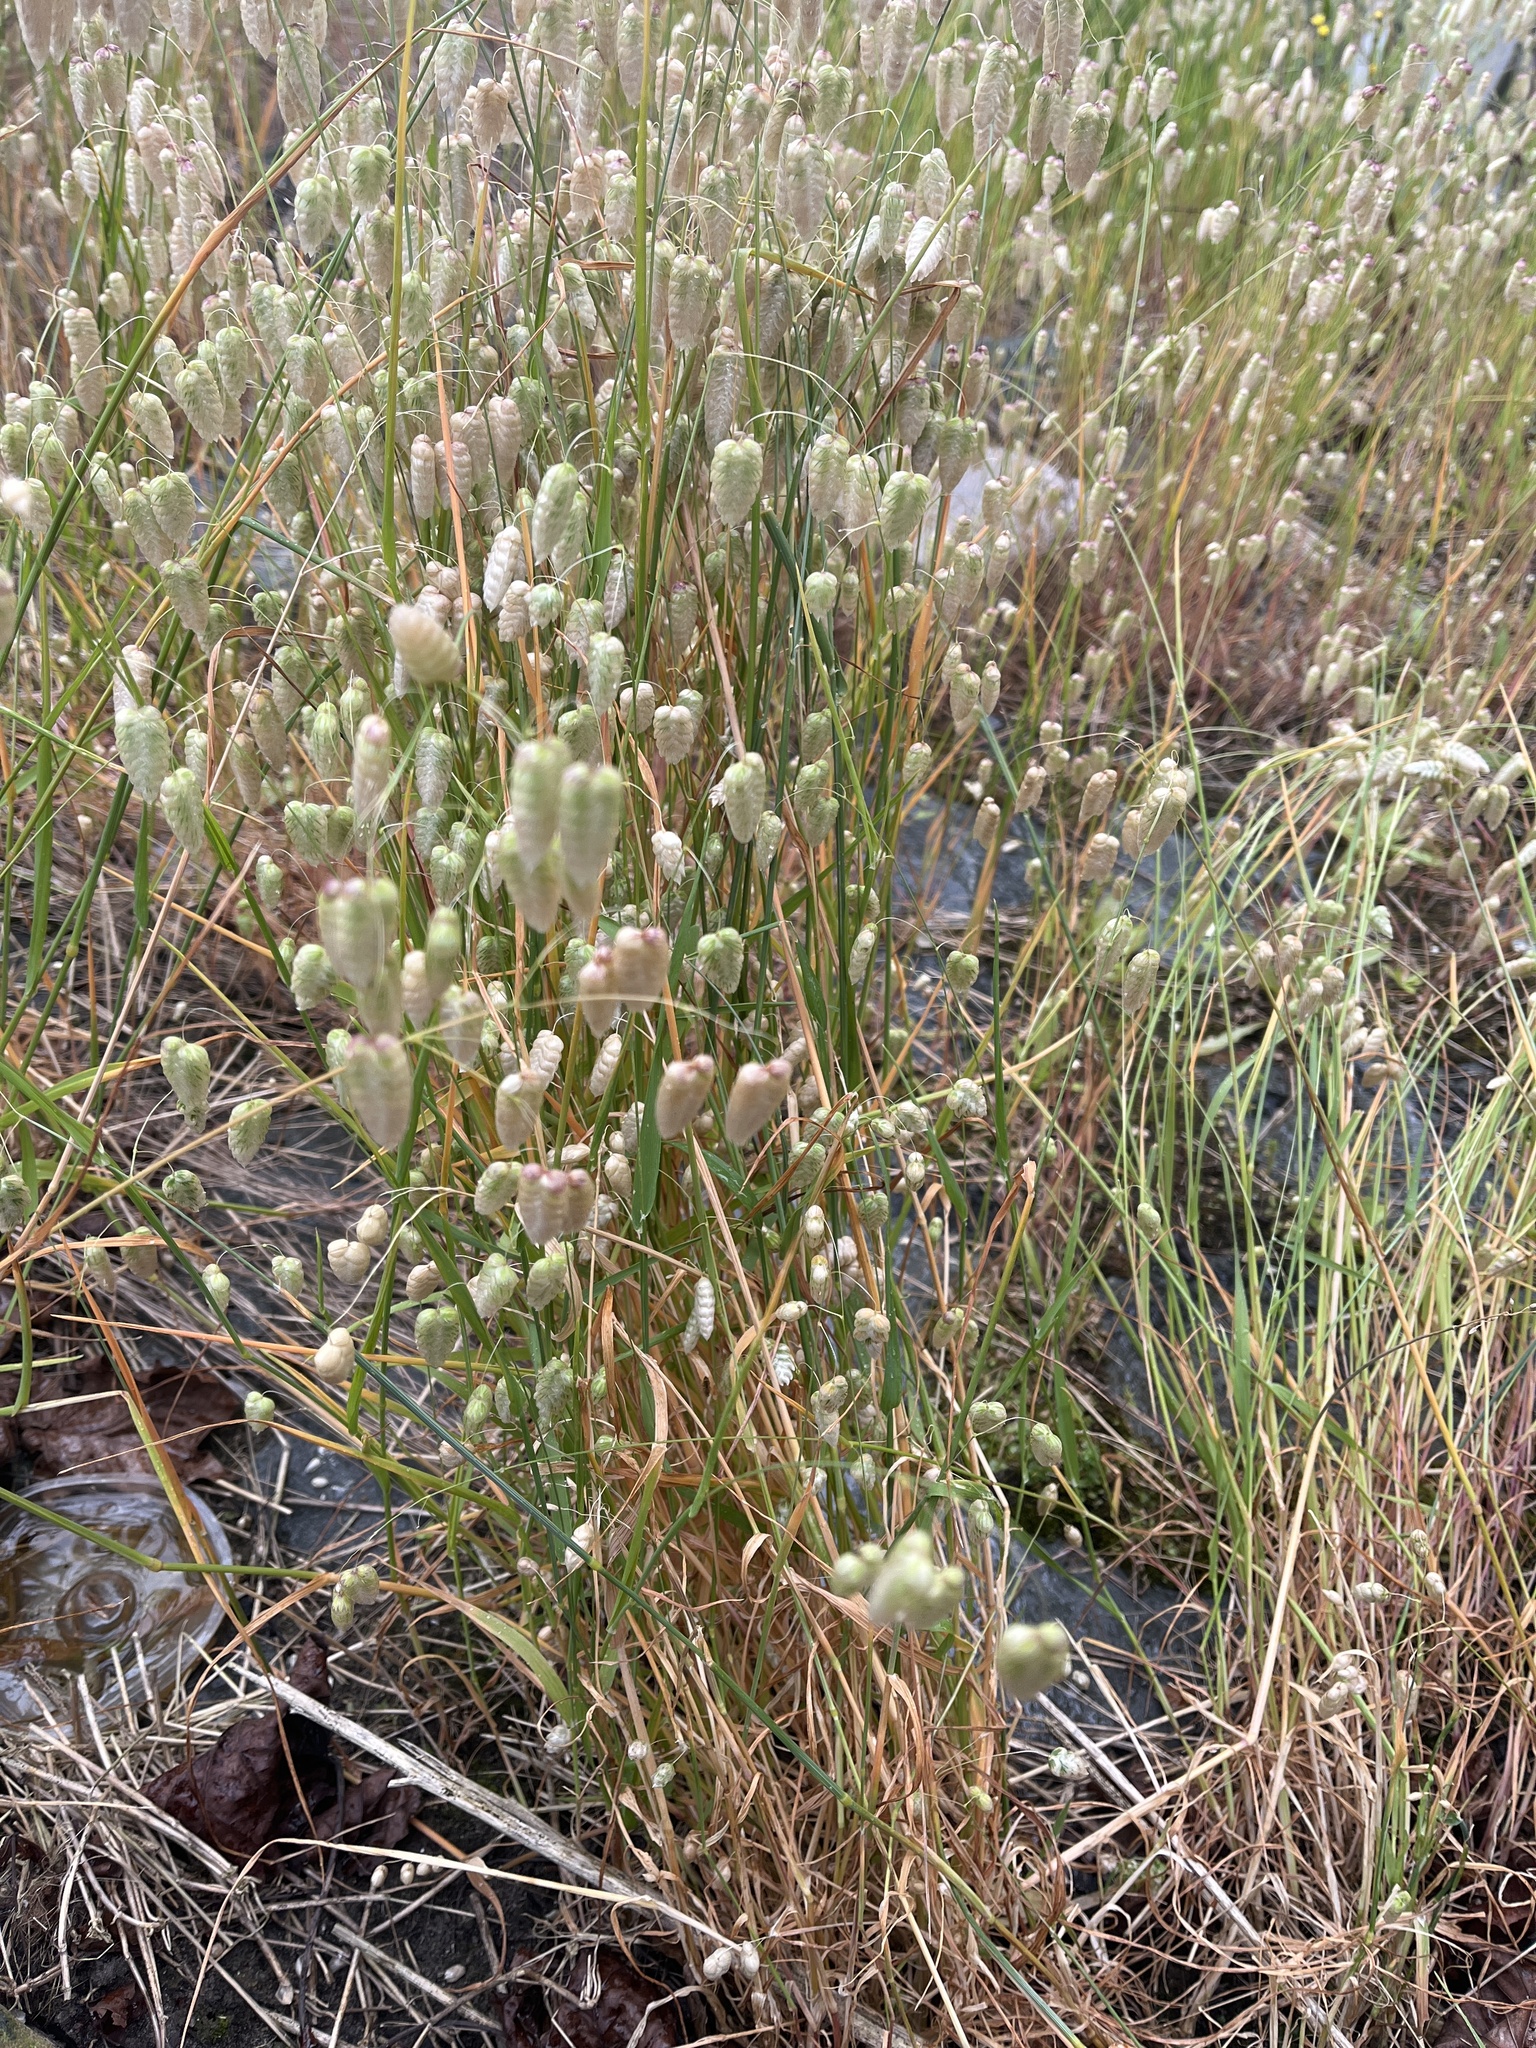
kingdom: Plantae
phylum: Tracheophyta
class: Liliopsida
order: Poales
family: Poaceae
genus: Briza
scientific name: Briza maxima
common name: Big quakinggrass
